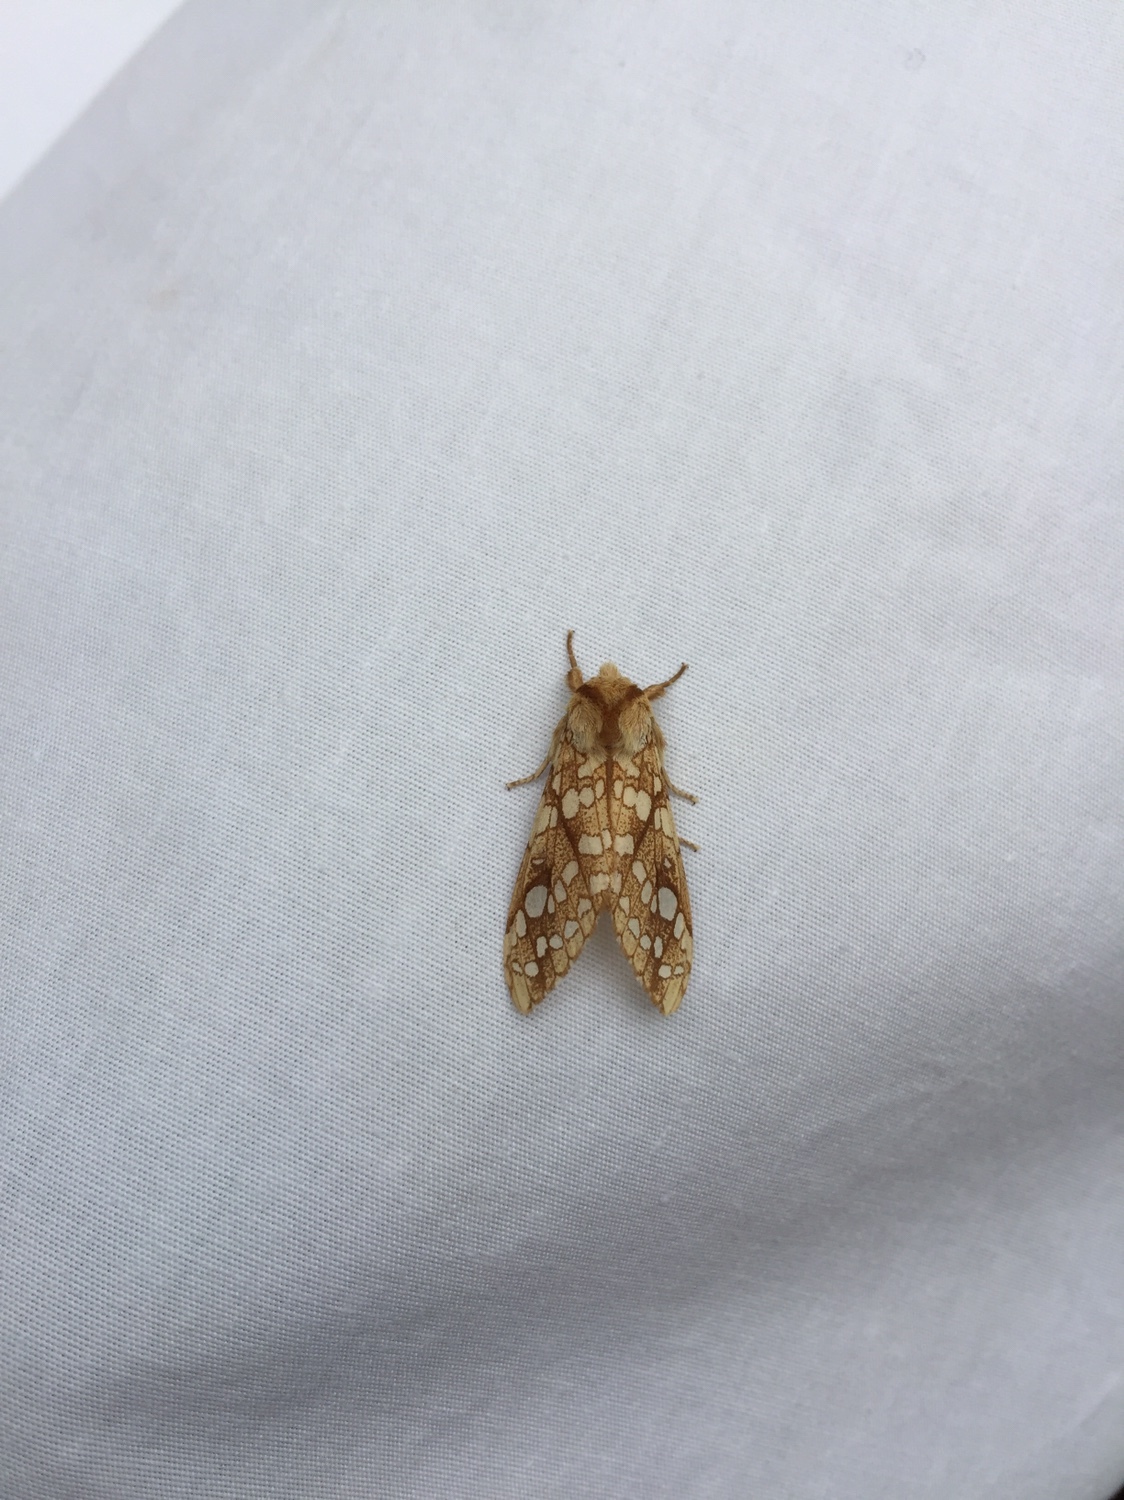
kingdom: Animalia
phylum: Arthropoda
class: Insecta
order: Lepidoptera
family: Erebidae
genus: Lophocampa
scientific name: Lophocampa caryae
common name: Hickory tussock moth
